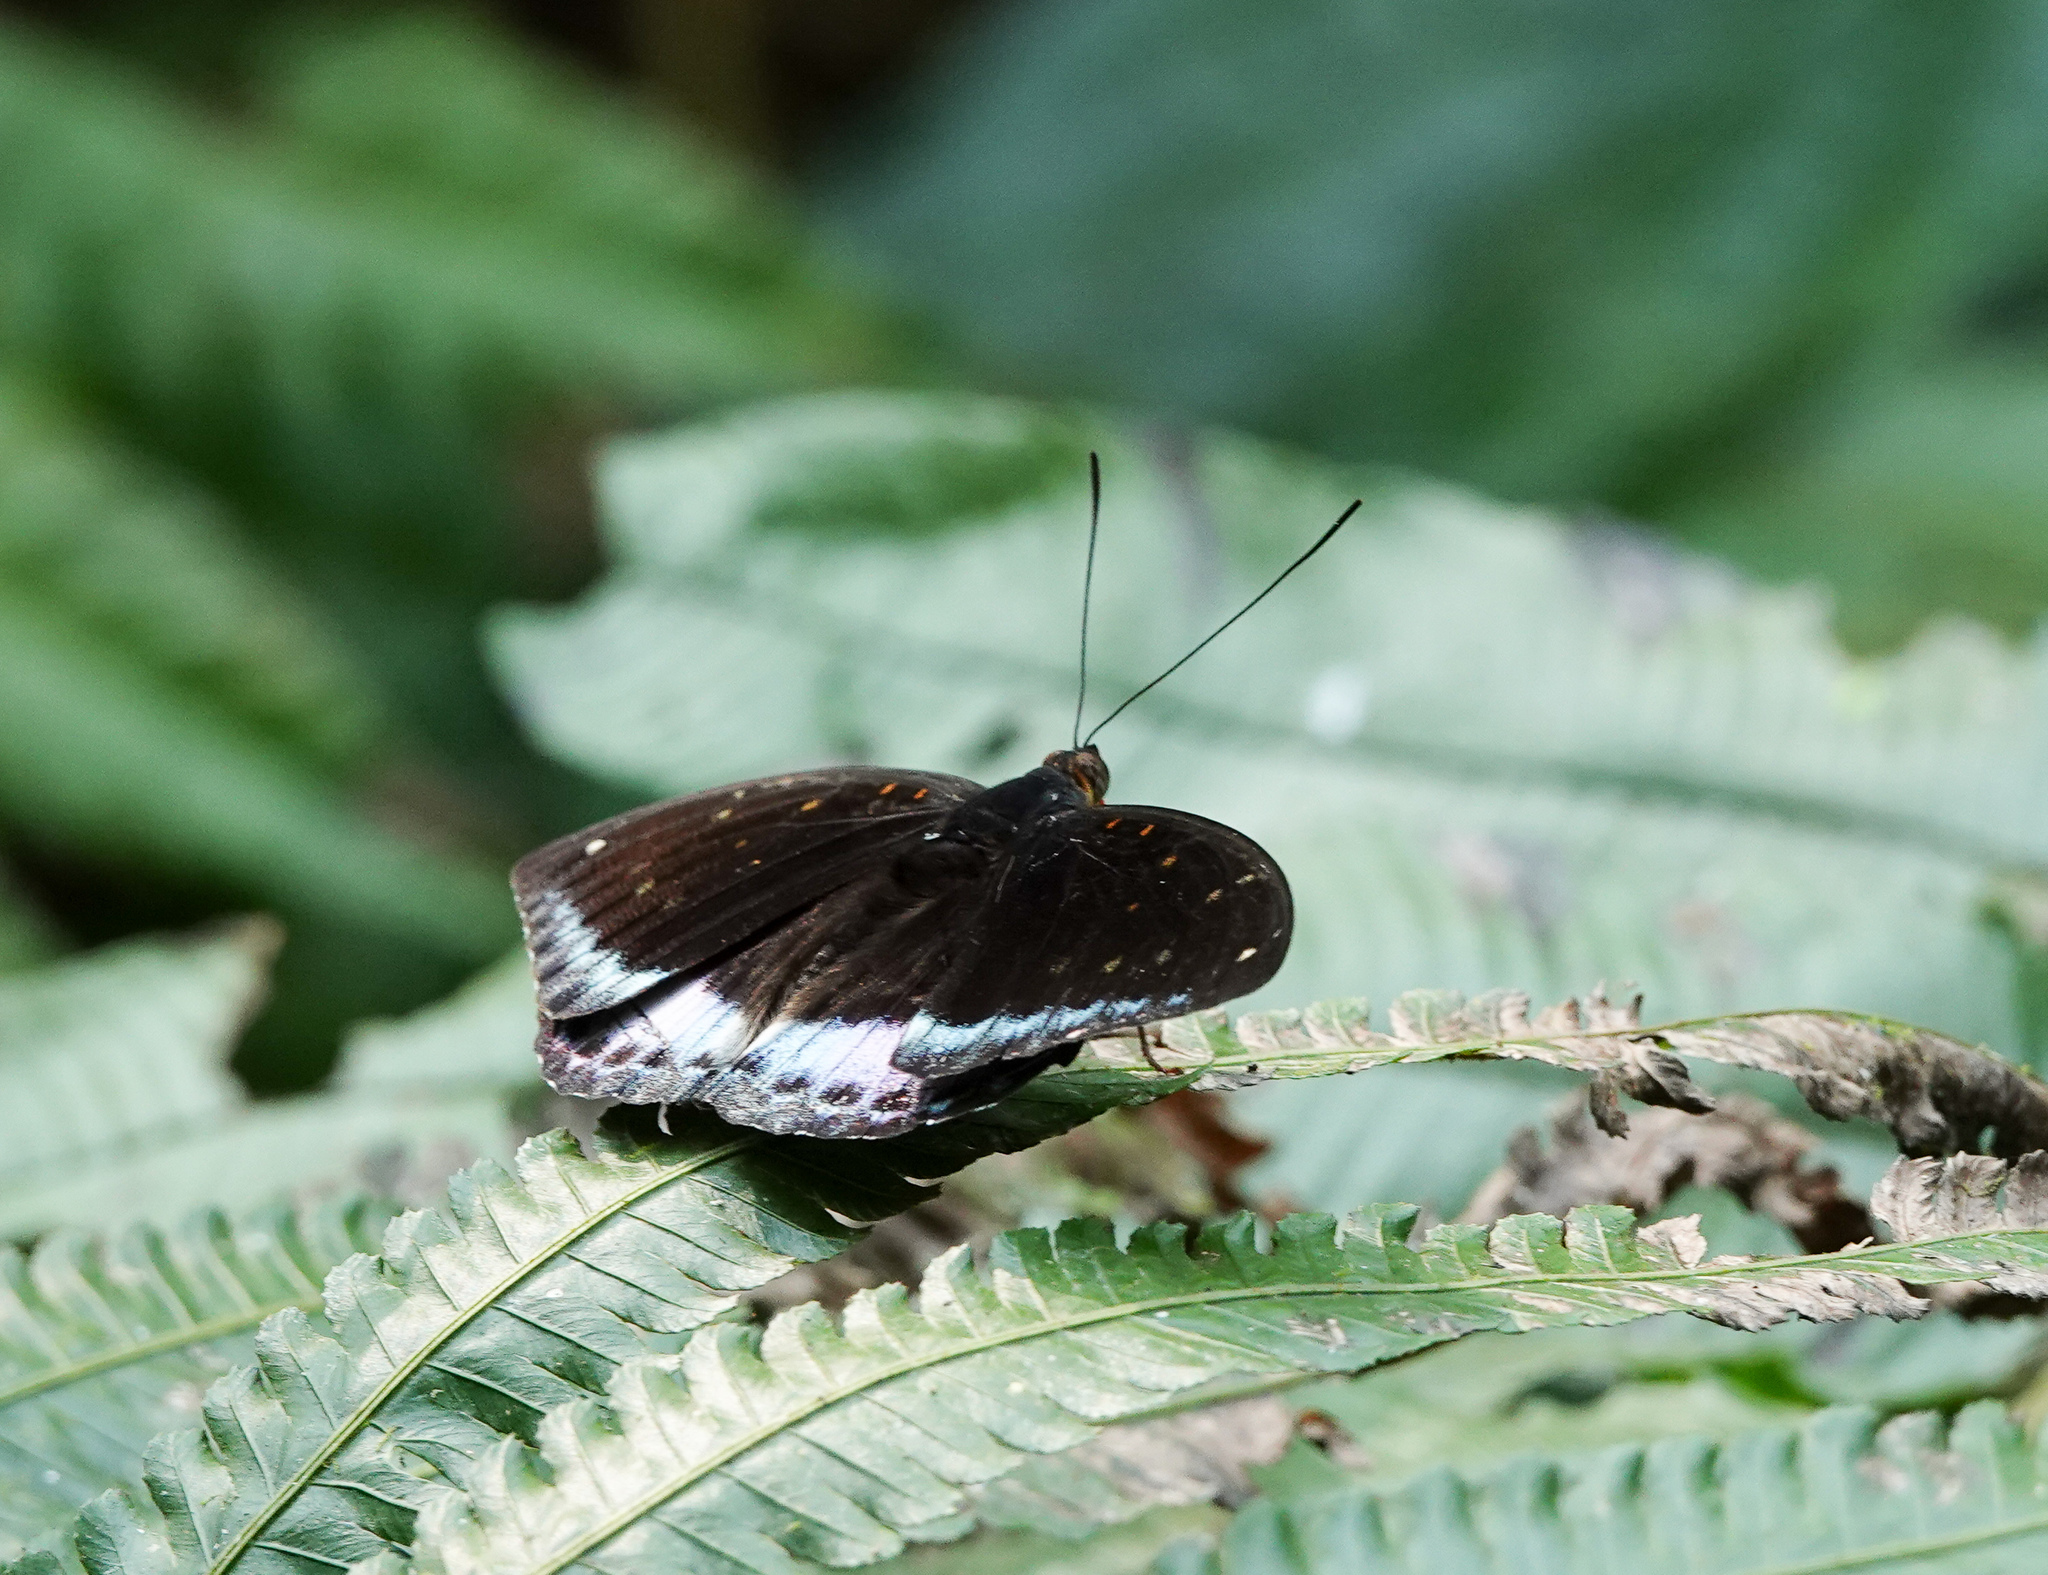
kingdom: Animalia
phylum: Arthropoda
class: Insecta
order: Lepidoptera
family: Nymphalidae
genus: Lexias
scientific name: Lexias dirtea
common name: Black-tipped archduke
